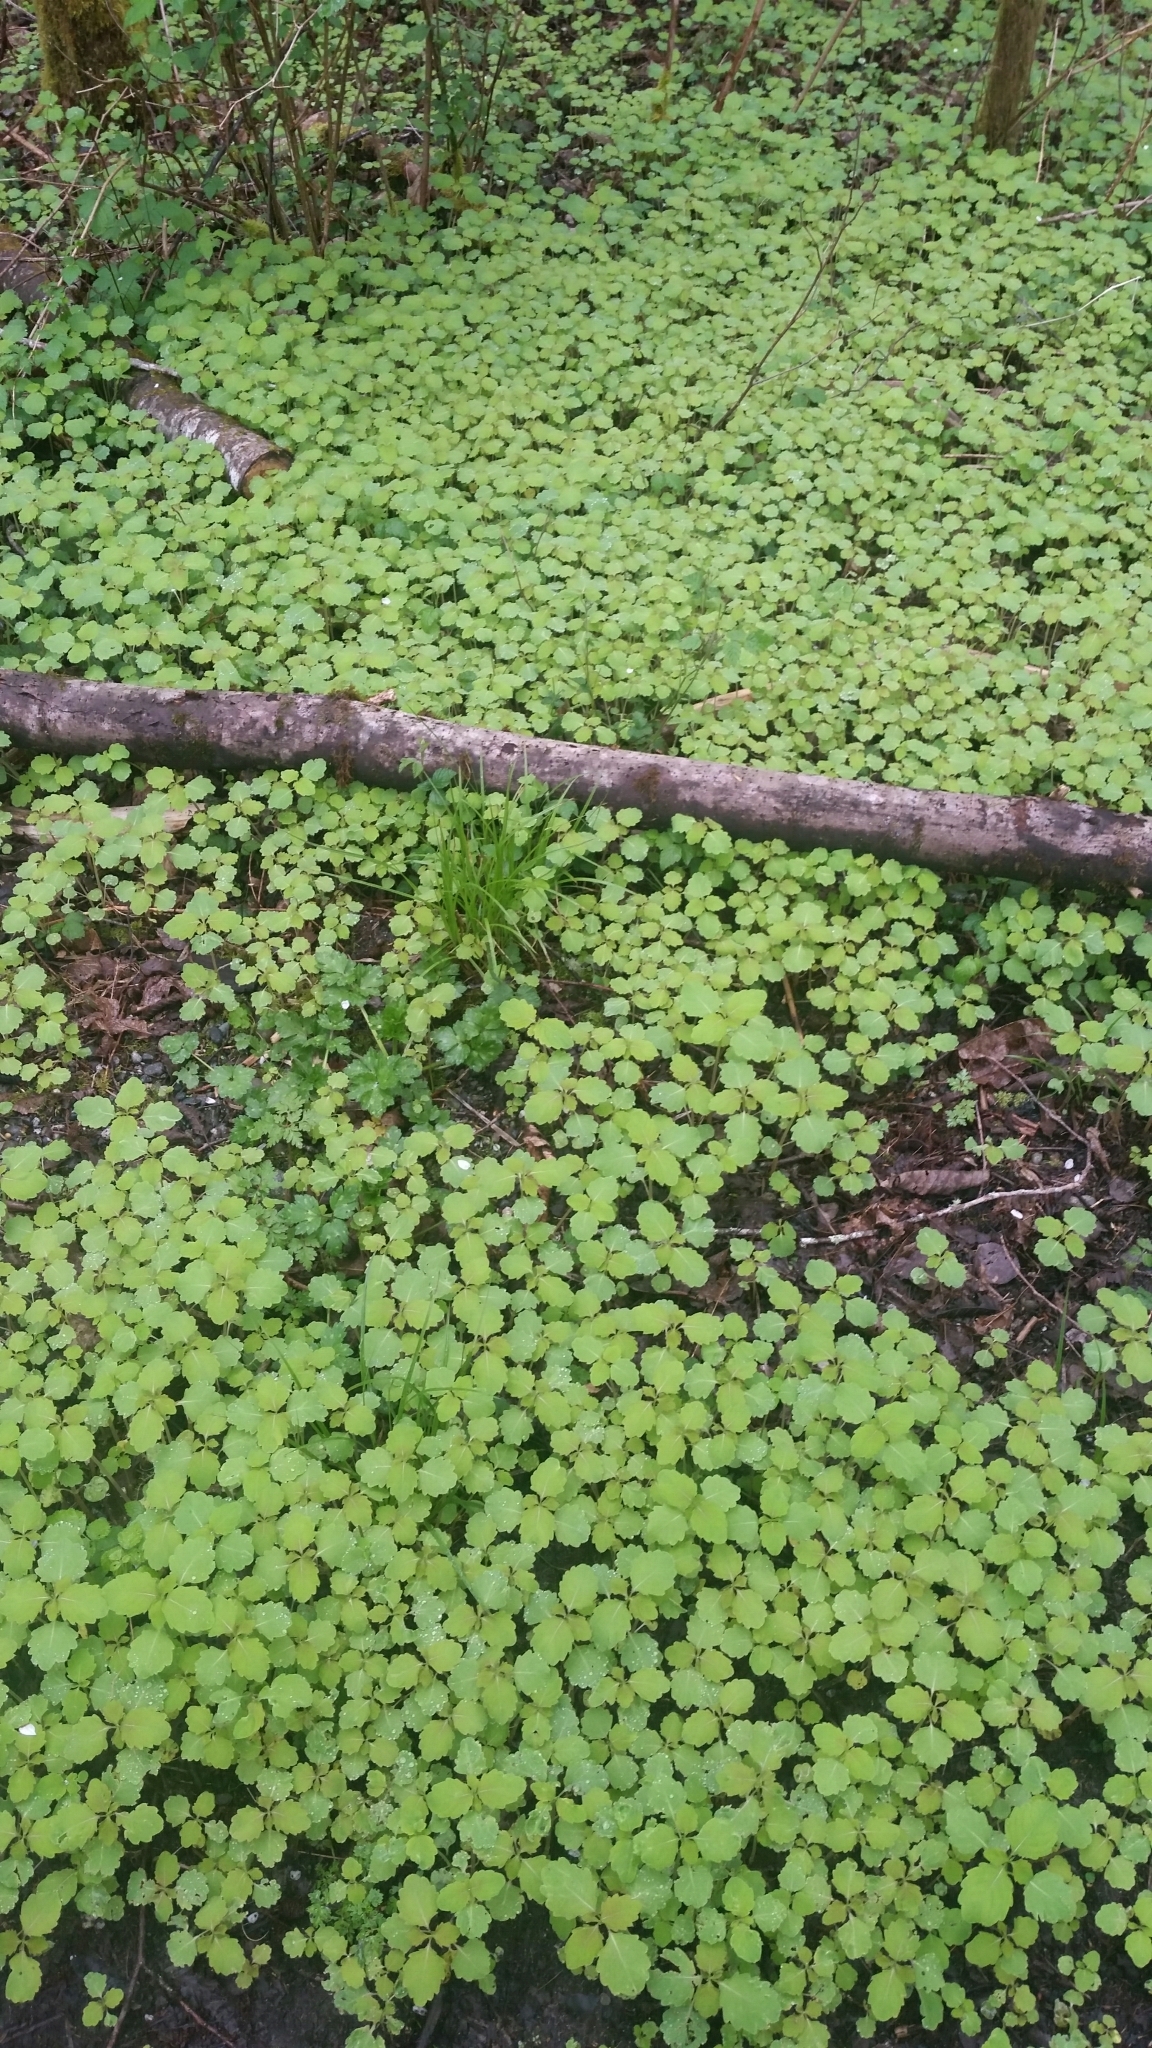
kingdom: Plantae
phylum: Tracheophyta
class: Magnoliopsida
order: Ericales
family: Balsaminaceae
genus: Impatiens
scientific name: Impatiens capensis
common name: Orange balsam
